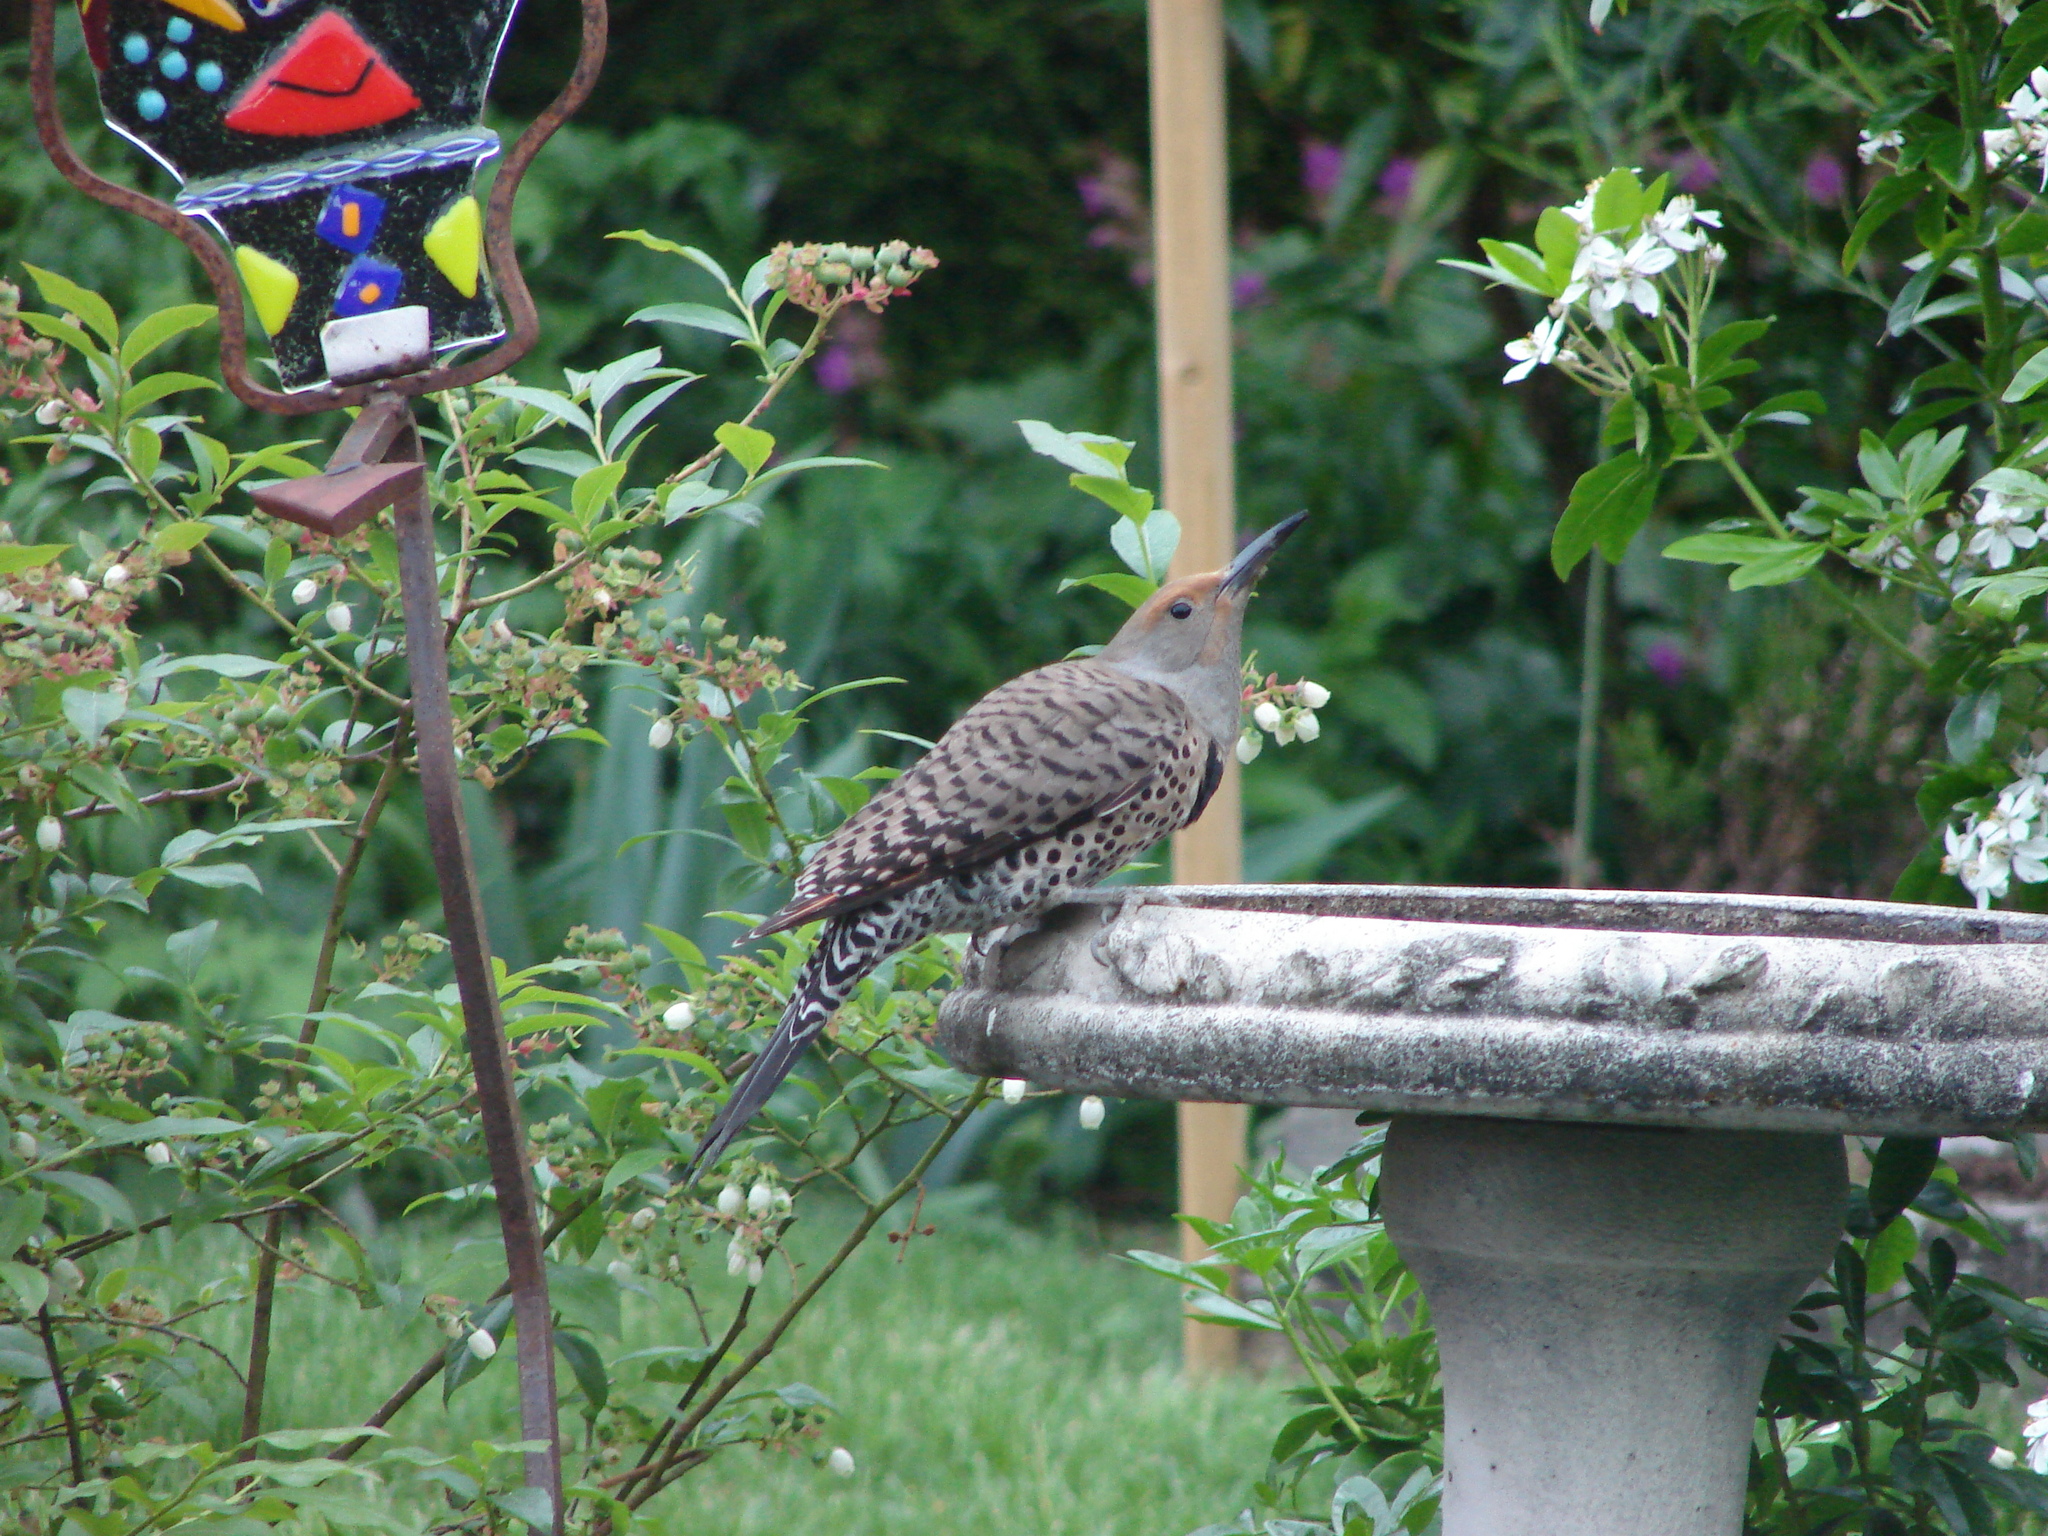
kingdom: Animalia
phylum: Chordata
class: Aves
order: Piciformes
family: Picidae
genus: Colaptes
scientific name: Colaptes auratus
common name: Northern flicker
